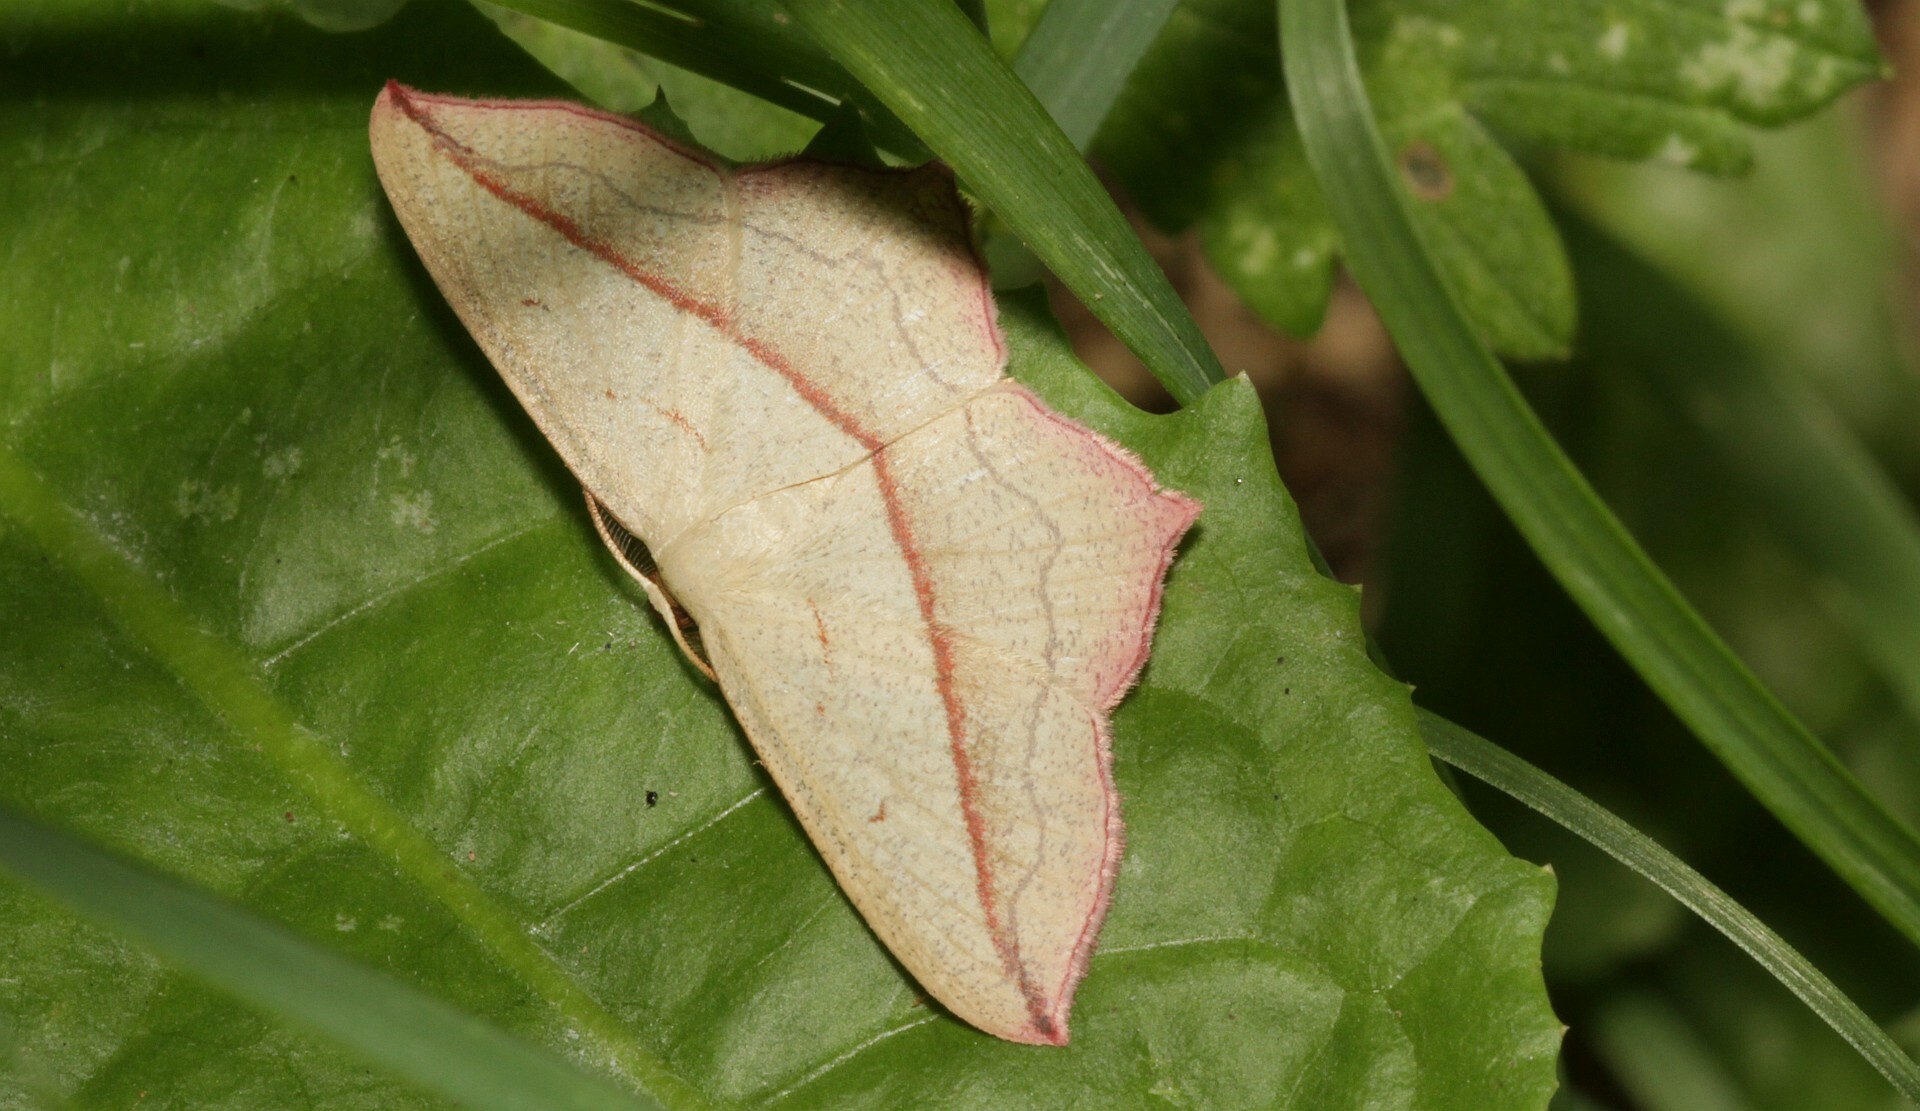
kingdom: Animalia
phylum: Arthropoda
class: Insecta
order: Lepidoptera
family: Geometridae
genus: Timandra
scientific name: Timandra comae
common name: Blood-vein
